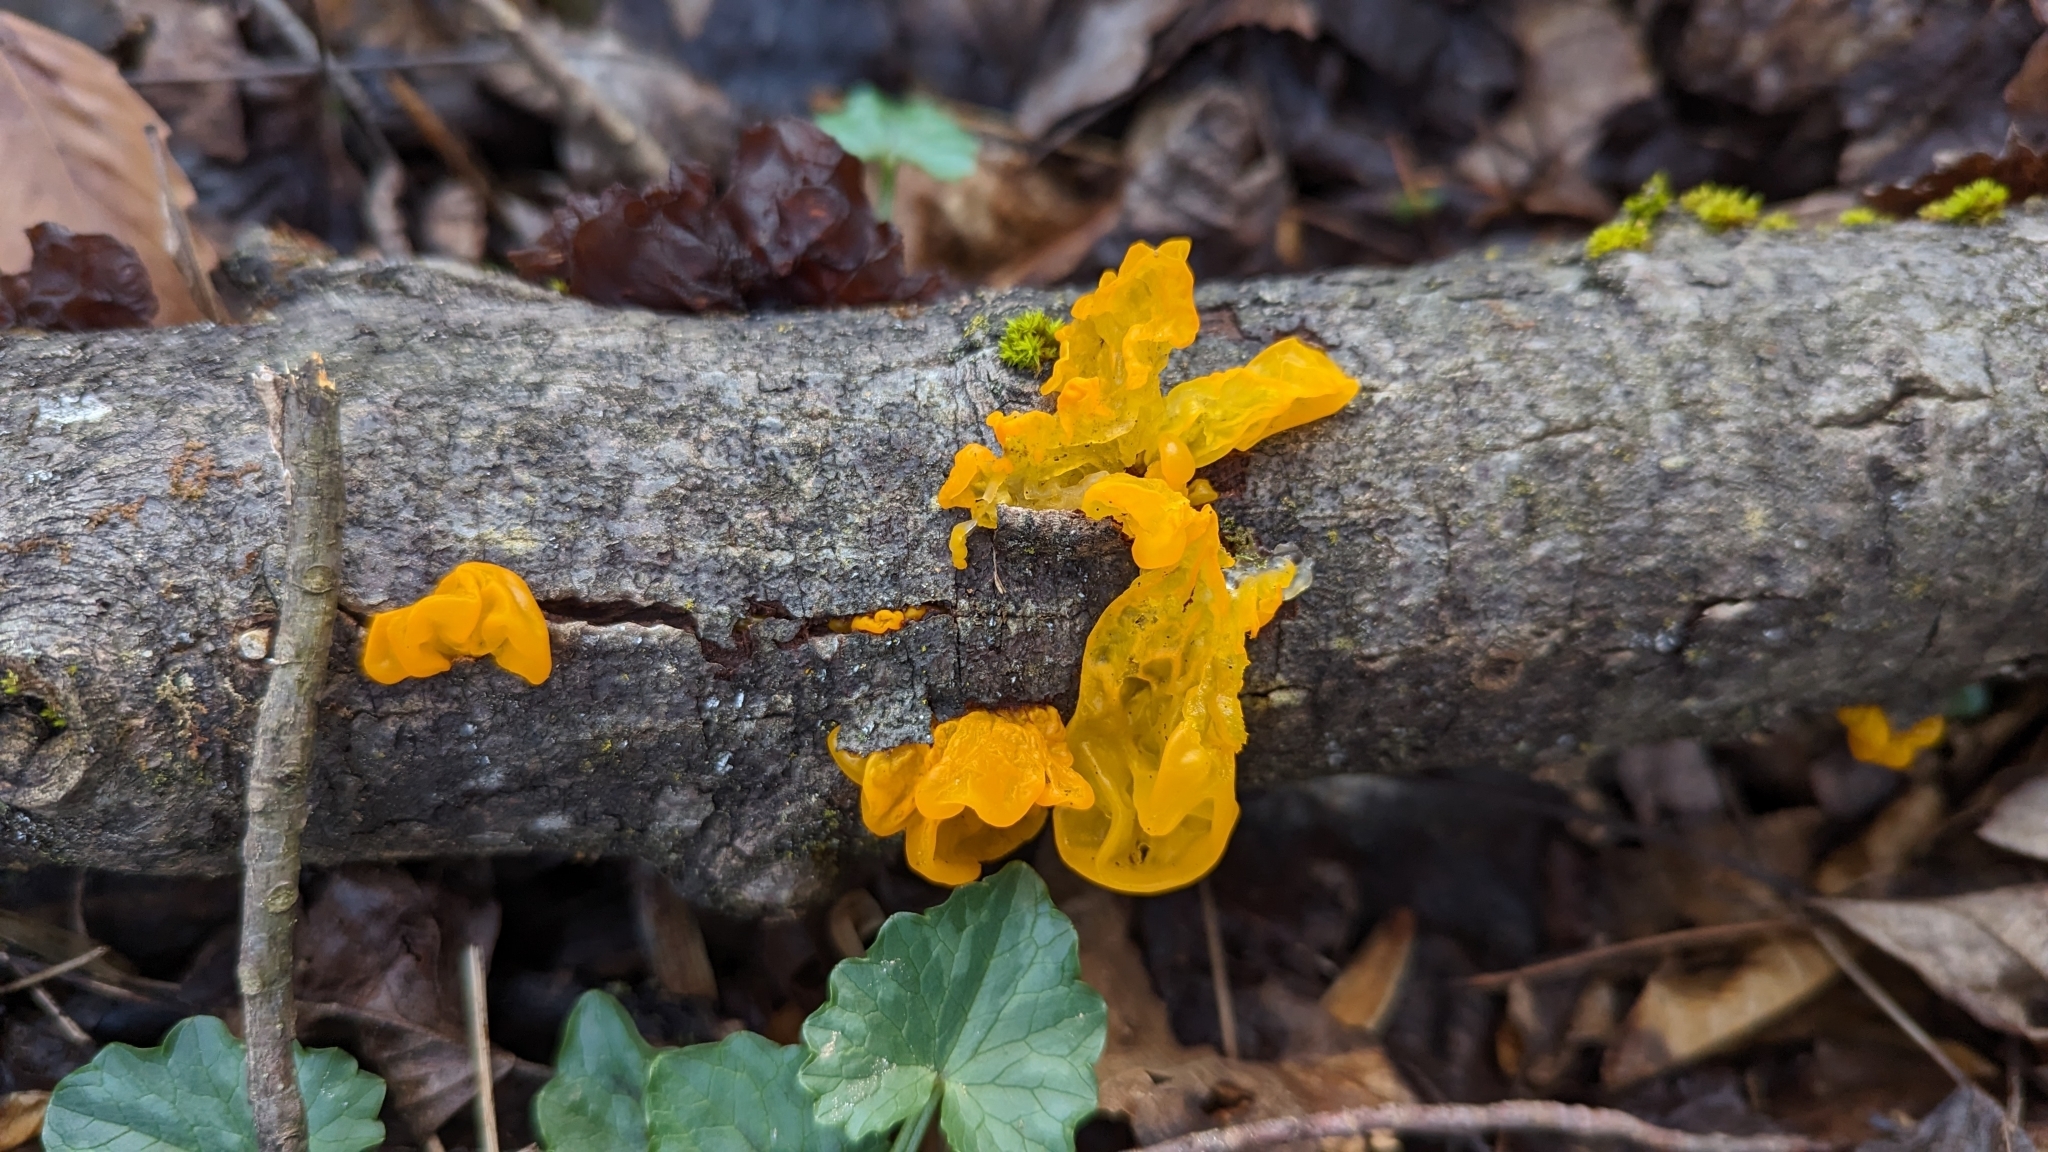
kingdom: Fungi
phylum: Basidiomycota
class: Tremellomycetes
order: Tremellales
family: Tremellaceae
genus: Tremella
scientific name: Tremella mesenterica
